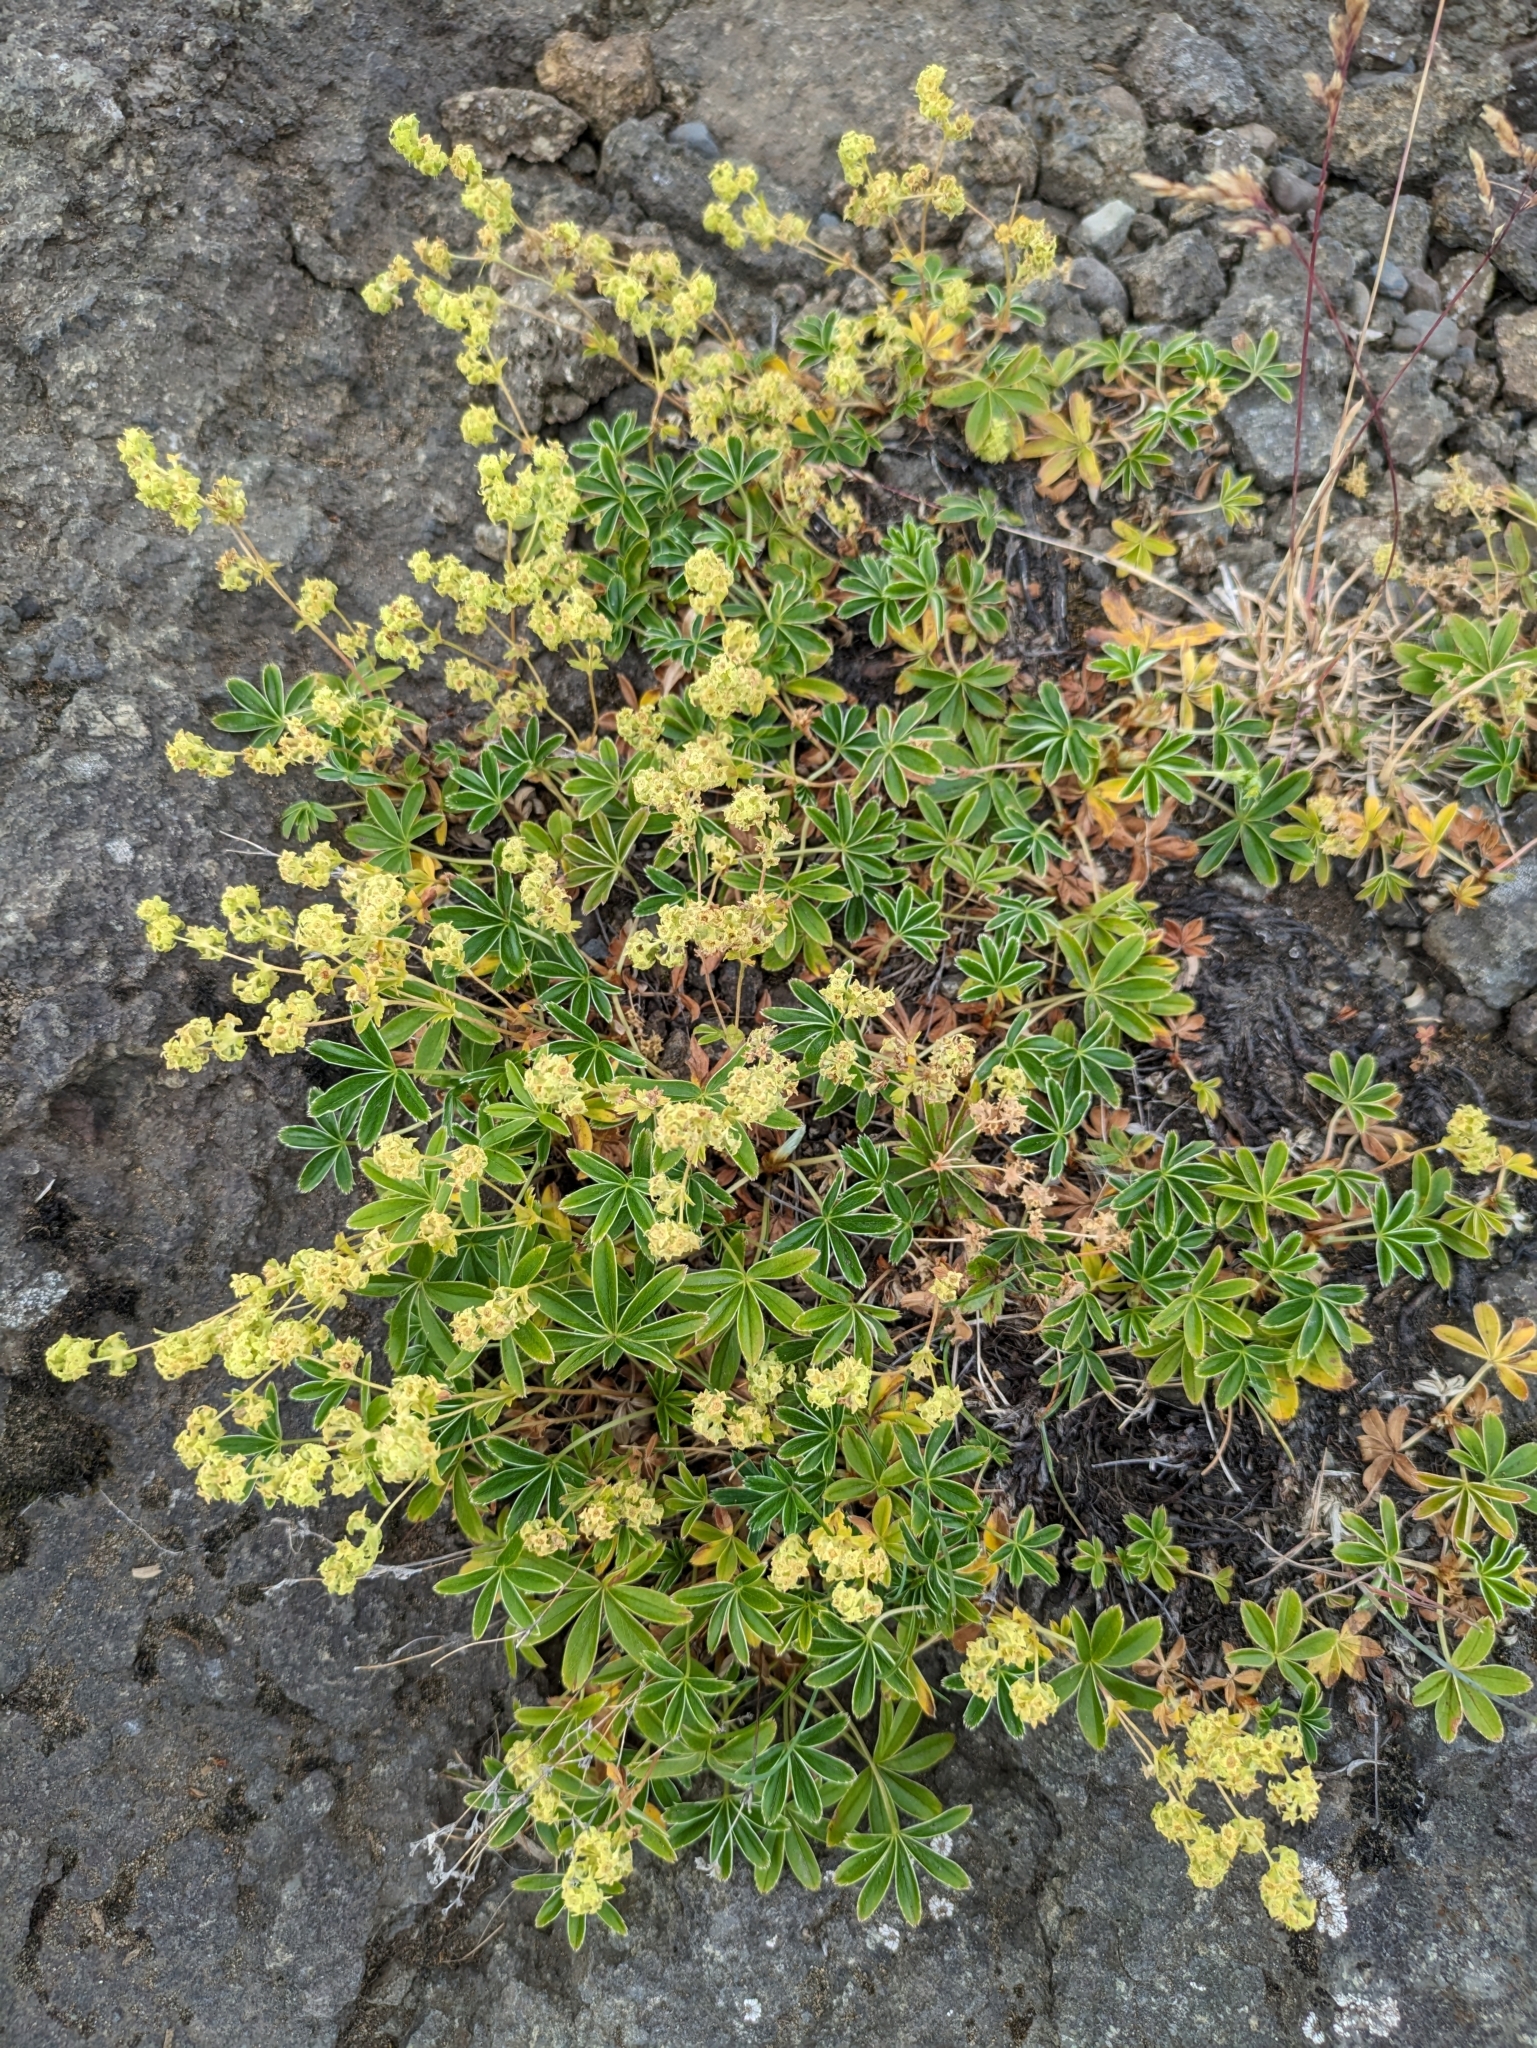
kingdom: Plantae
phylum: Tracheophyta
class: Magnoliopsida
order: Rosales
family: Rosaceae
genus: Alchemilla
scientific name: Alchemilla alpina
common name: Alpine lady's-mantle
